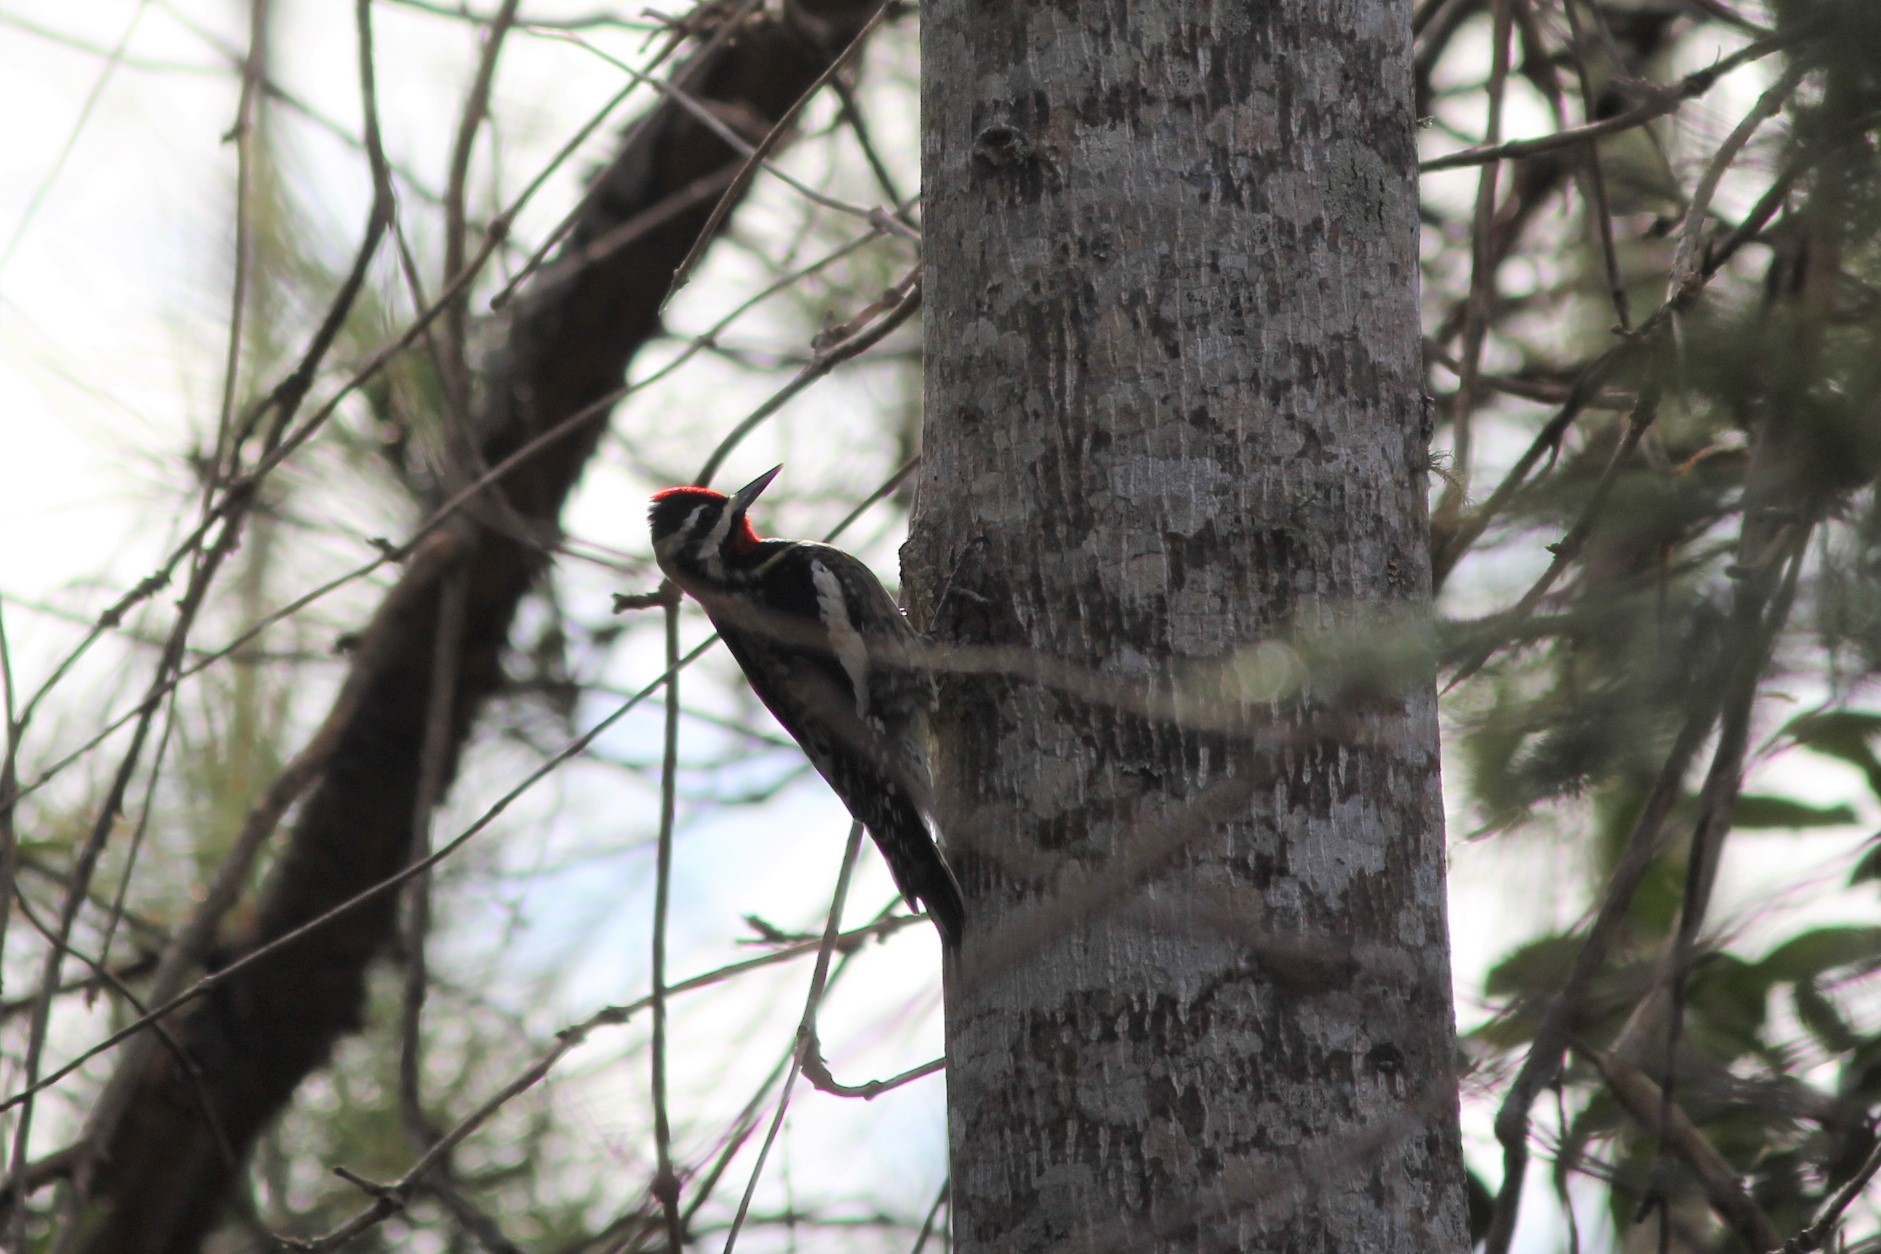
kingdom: Animalia
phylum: Chordata
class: Aves
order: Piciformes
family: Picidae
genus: Sphyrapicus
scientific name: Sphyrapicus varius
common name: Yellow-bellied sapsucker
